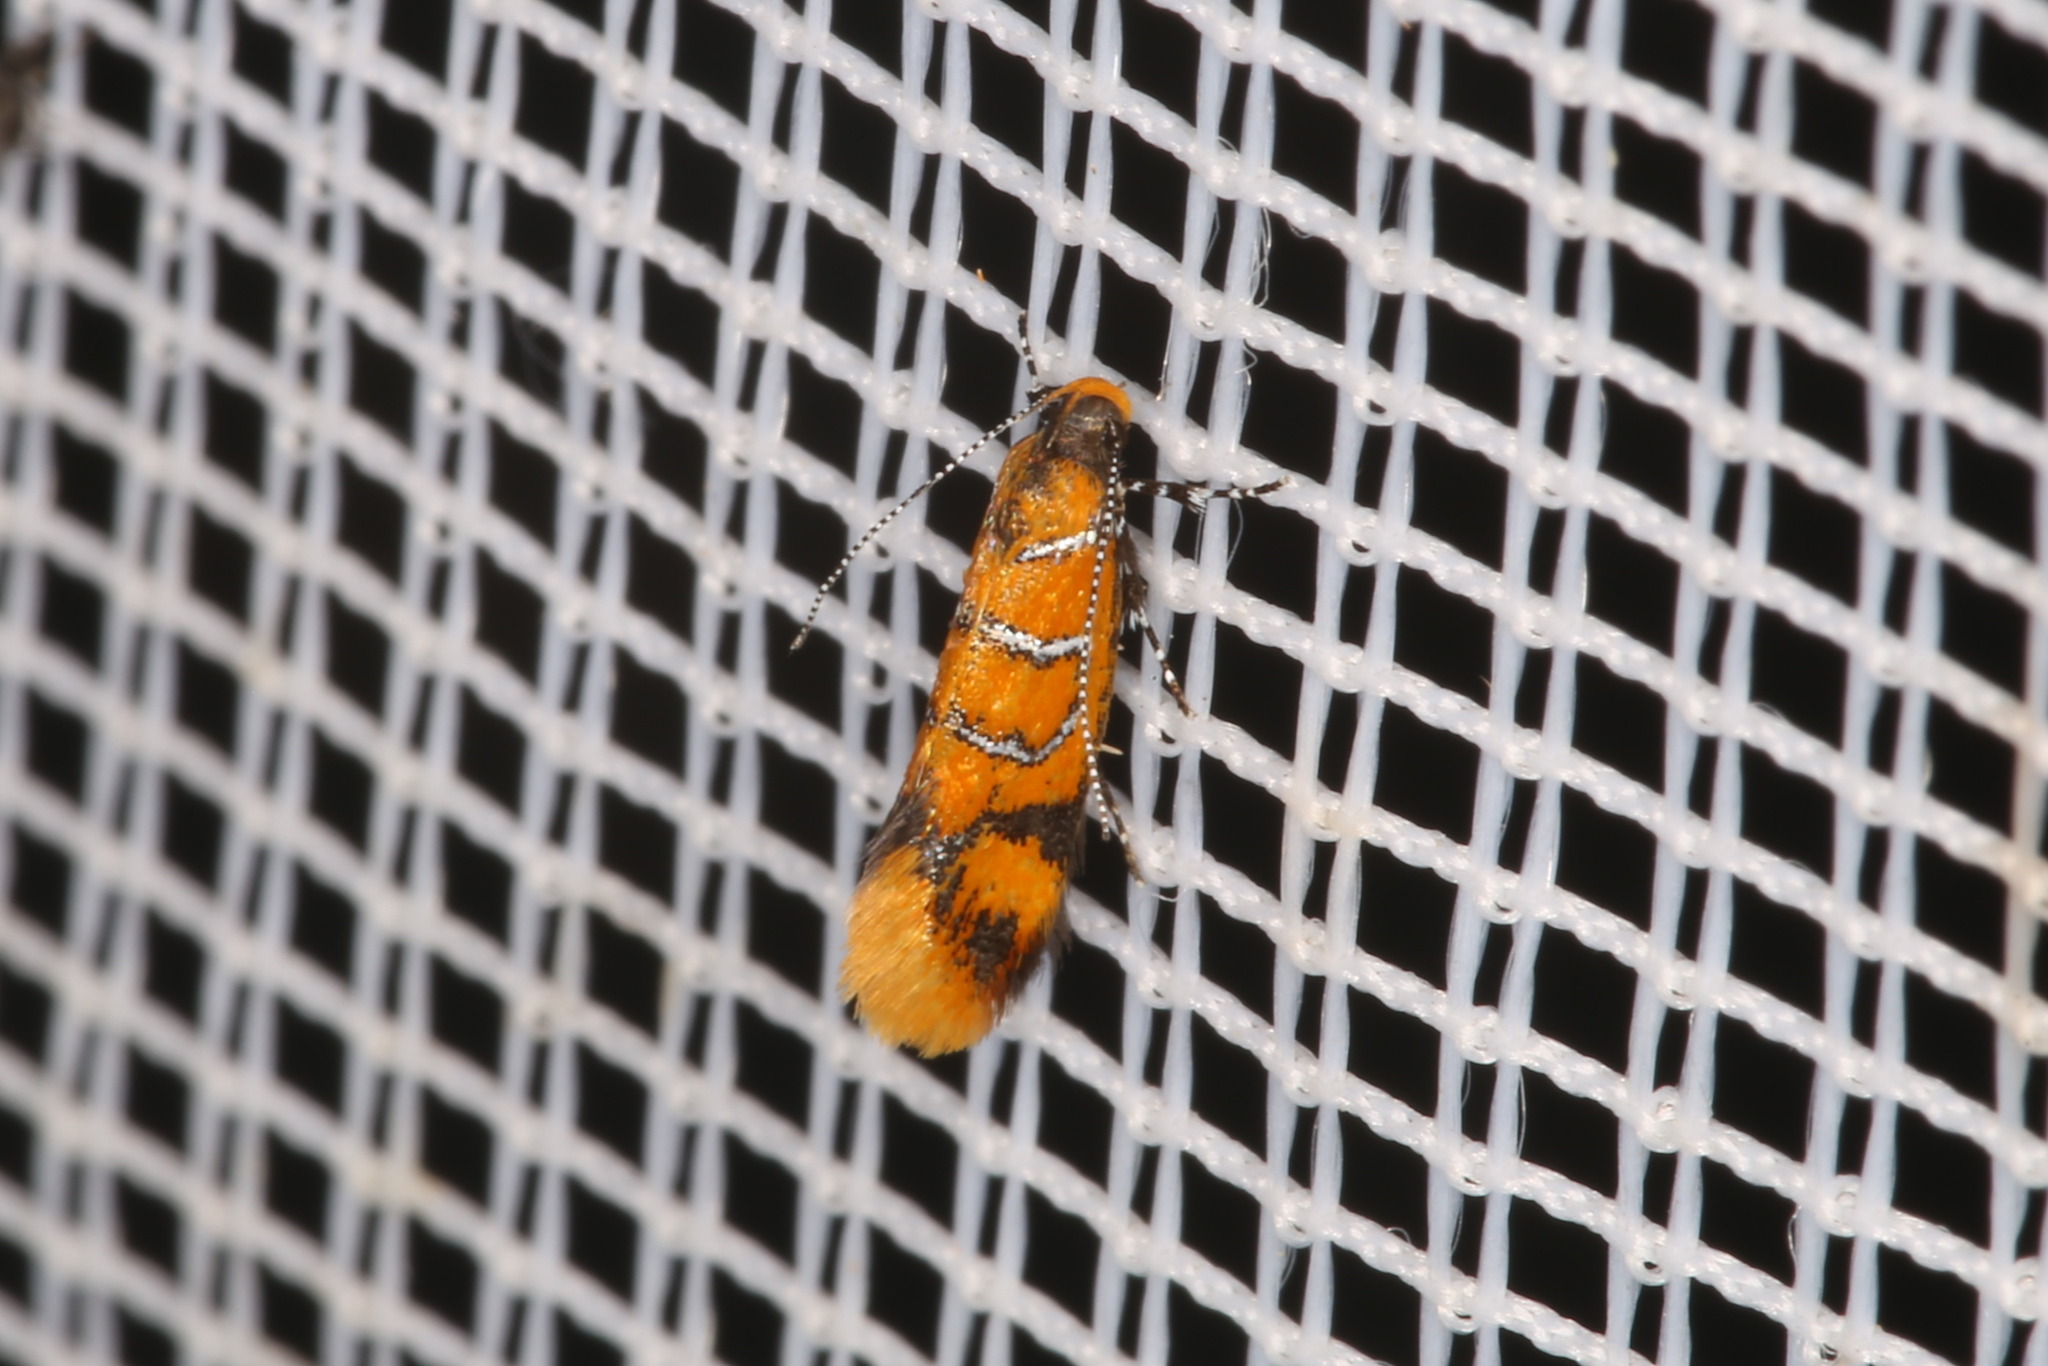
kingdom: Animalia
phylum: Arthropoda
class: Insecta
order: Lepidoptera
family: Oecophoridae
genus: Schiffermuelleria
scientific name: Schiffermuelleria procerella
